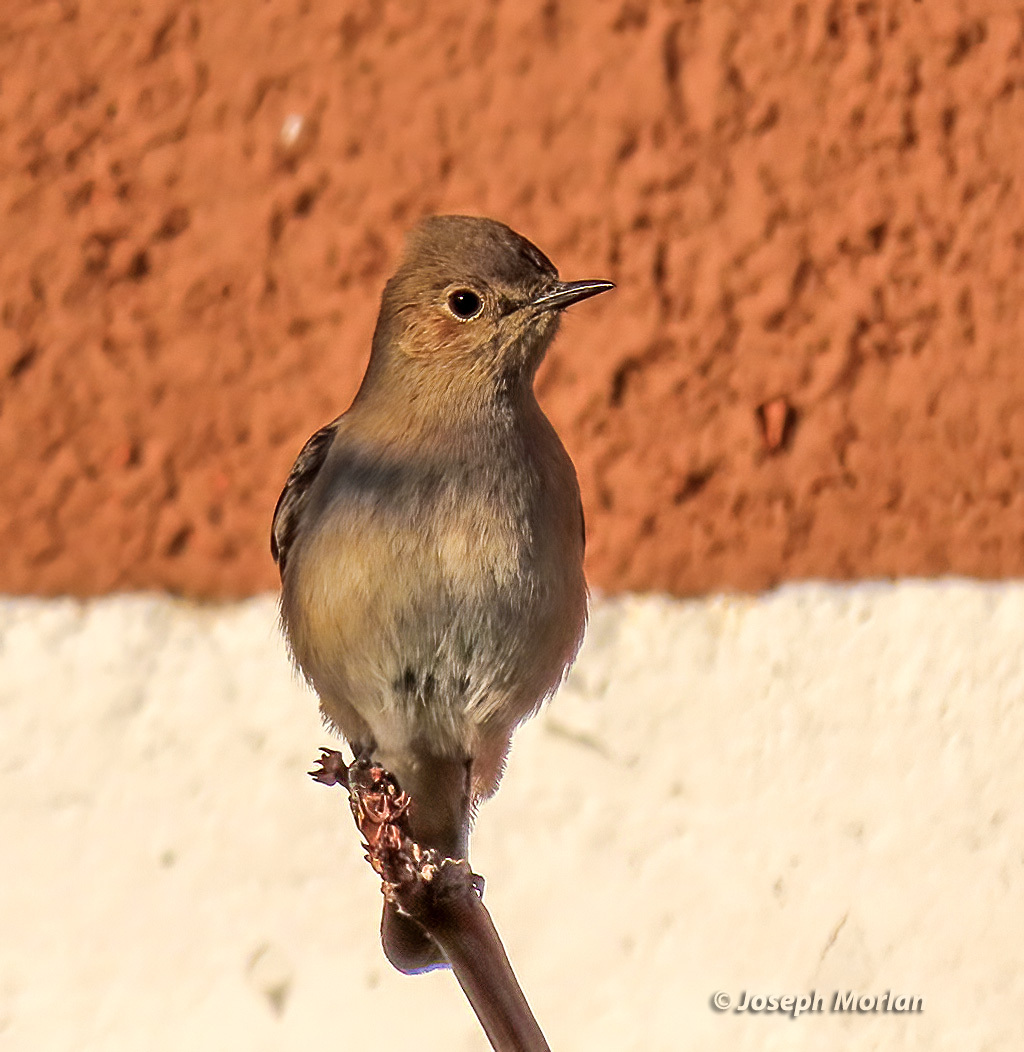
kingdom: Animalia
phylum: Chordata
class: Aves
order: Passeriformes
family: Muscicapidae
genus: Oenanthe
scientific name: Oenanthe familiaris
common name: Familiar chat
